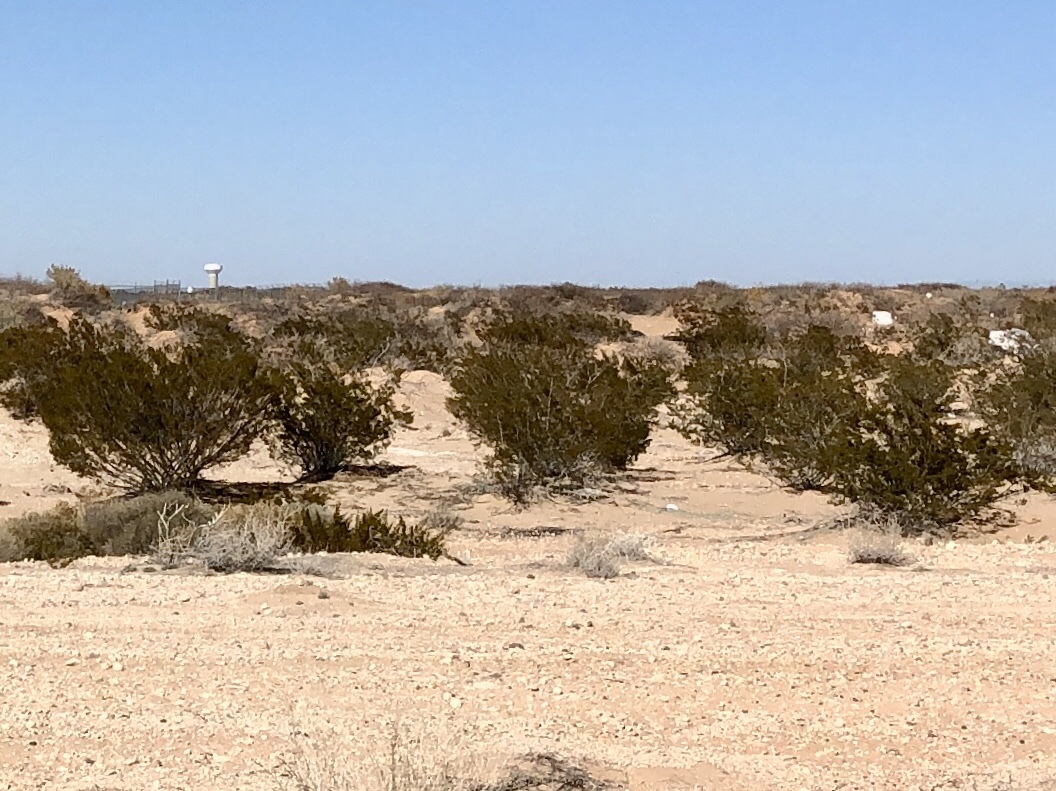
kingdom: Plantae
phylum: Tracheophyta
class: Magnoliopsida
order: Zygophyllales
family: Zygophyllaceae
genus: Larrea
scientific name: Larrea tridentata
